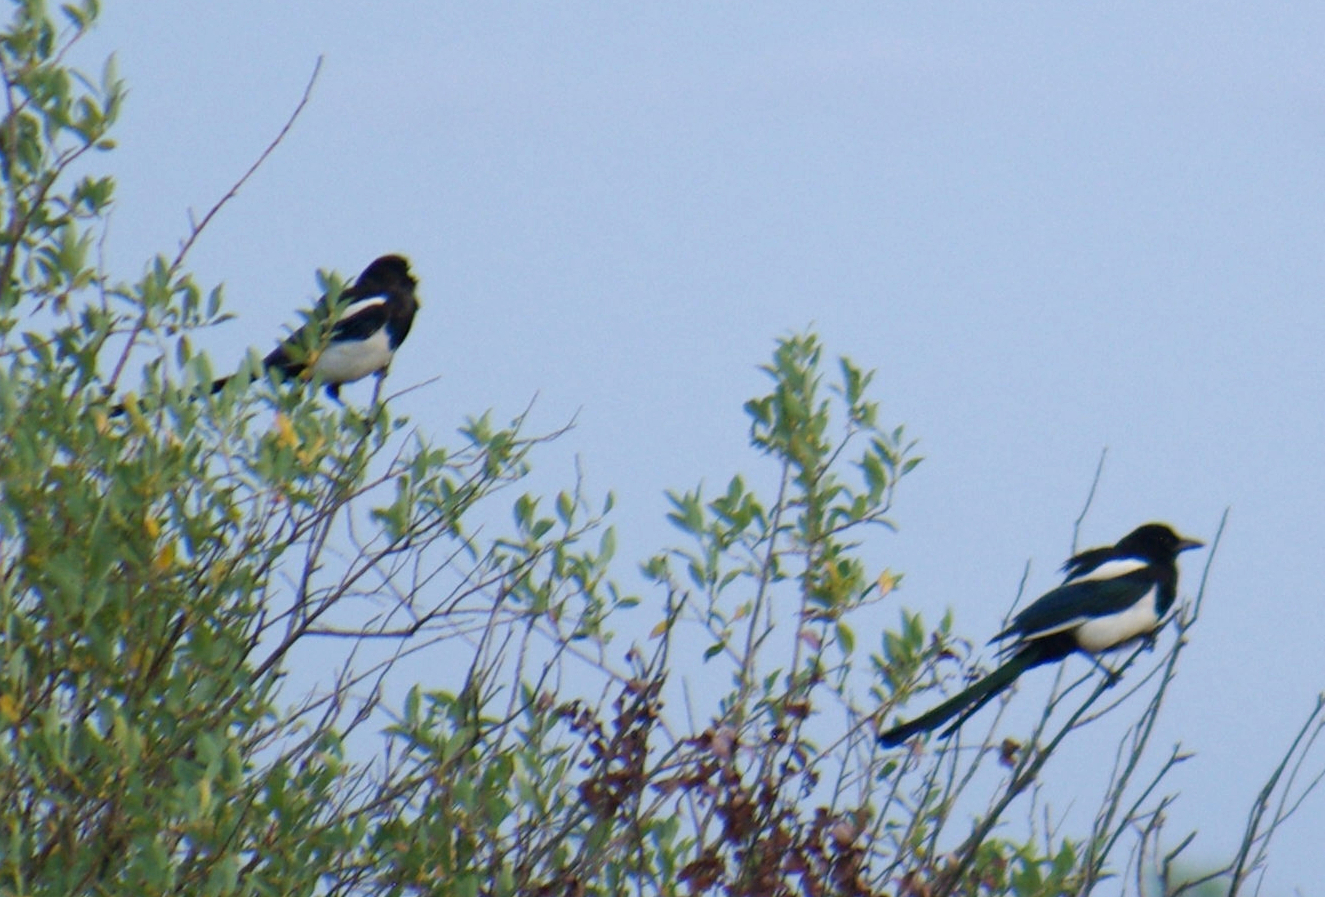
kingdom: Animalia
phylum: Chordata
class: Aves
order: Passeriformes
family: Corvidae
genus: Pica
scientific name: Pica hudsonia
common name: Black-billed magpie
